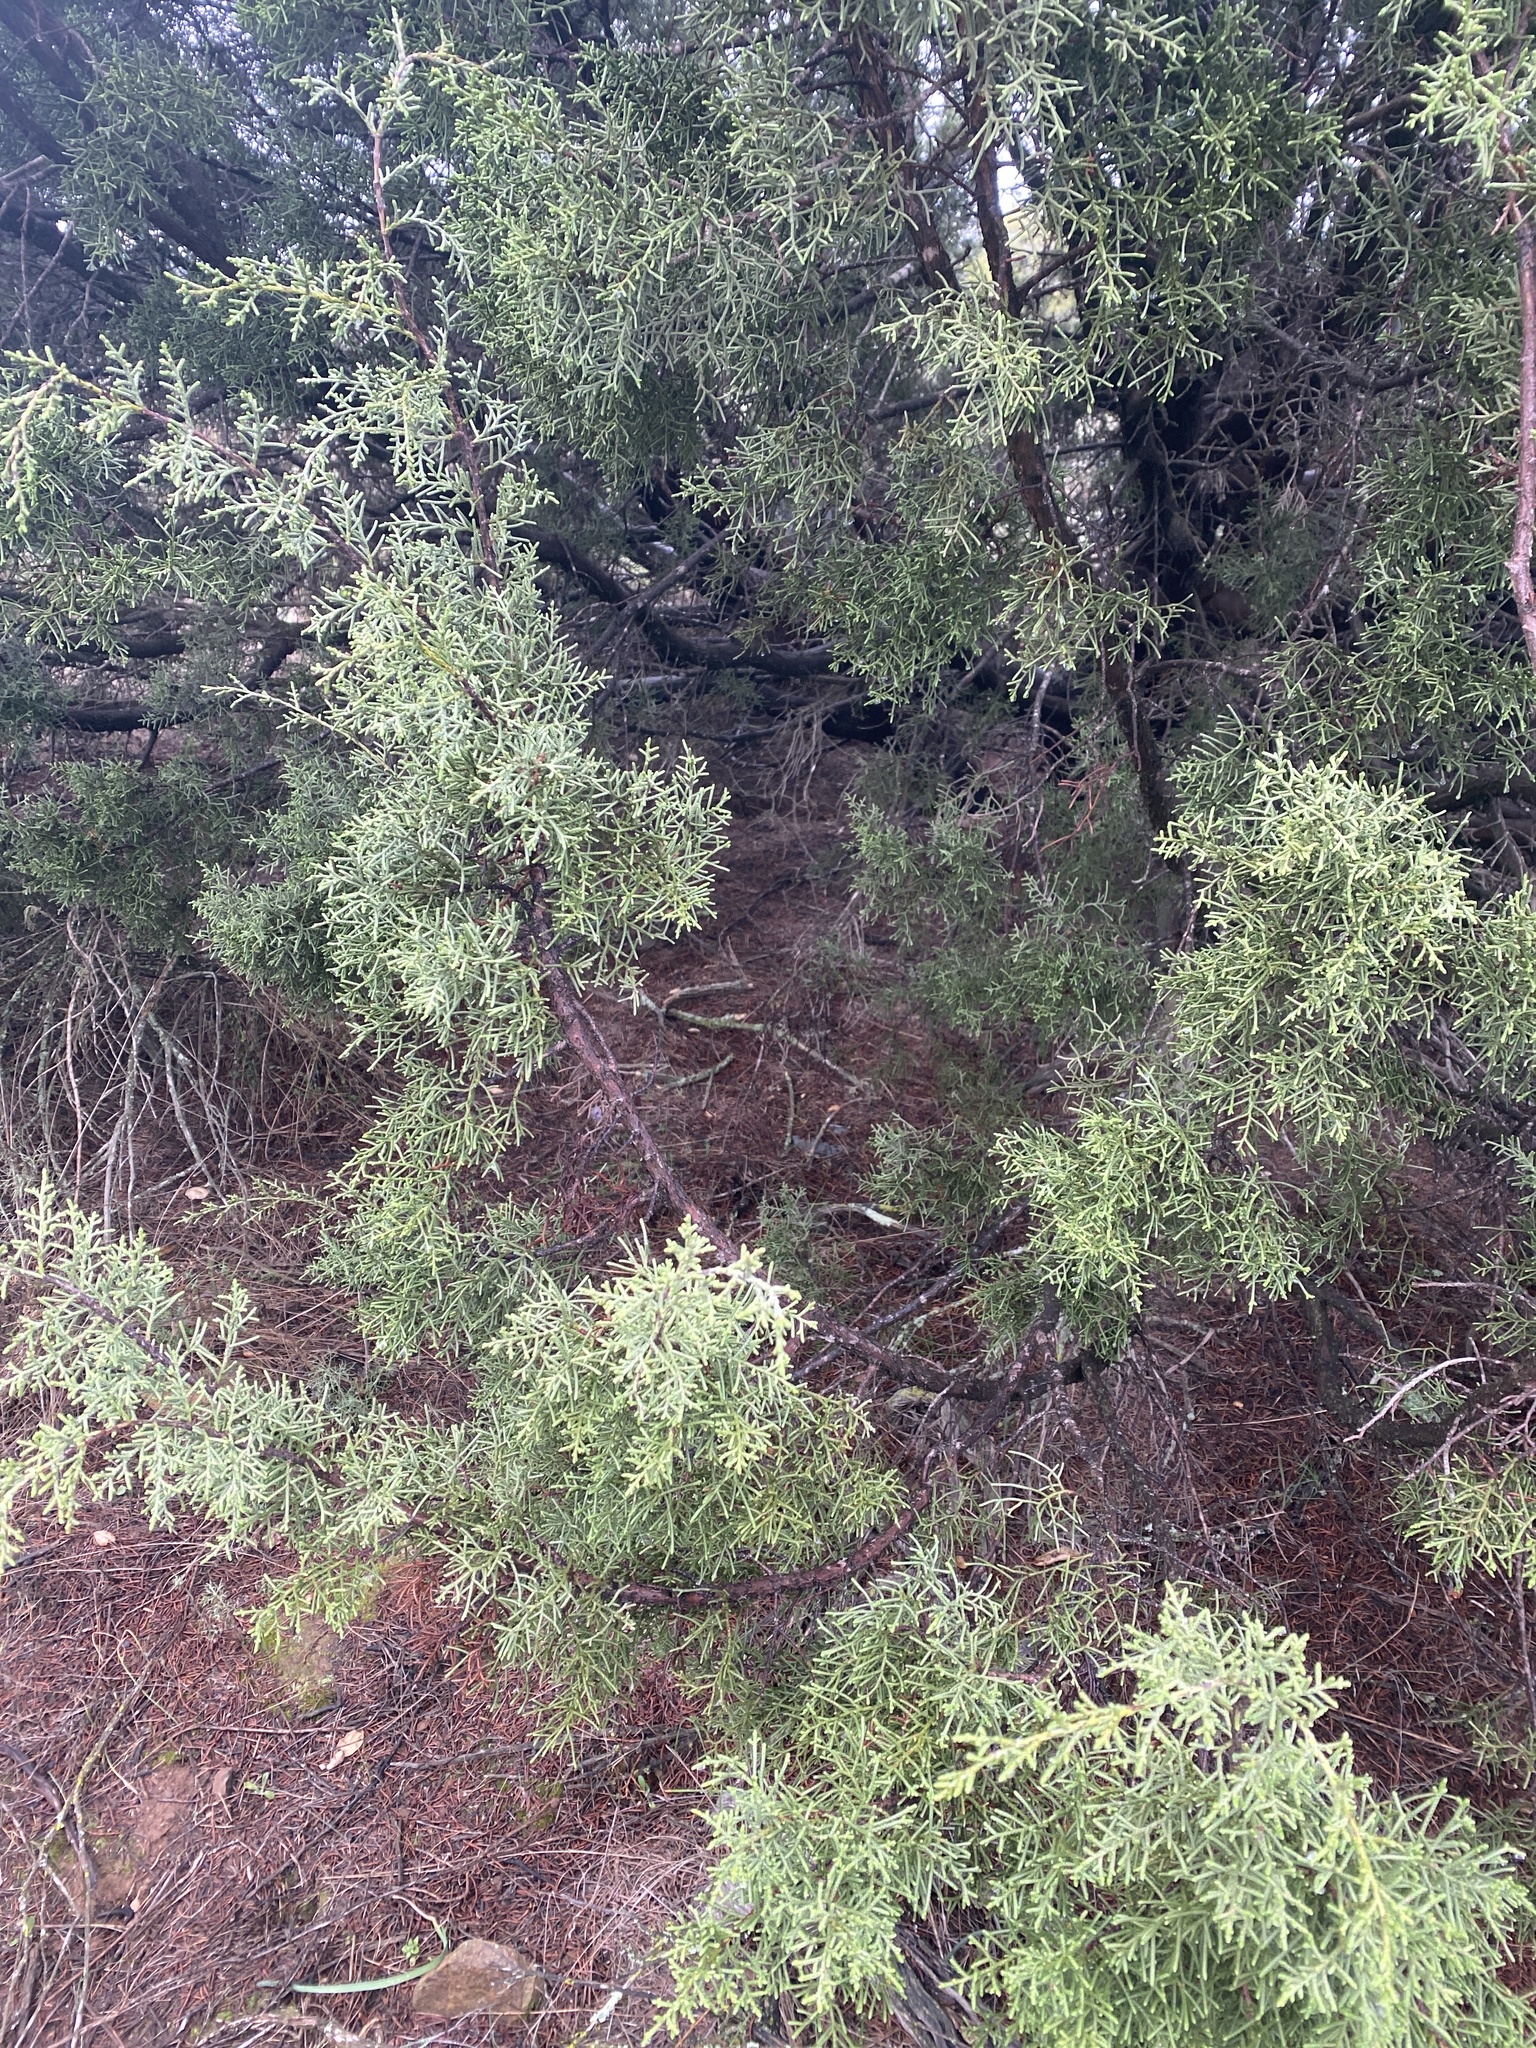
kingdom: Plantae
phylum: Tracheophyta
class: Pinopsida
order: Pinales
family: Cupressaceae
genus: Juniperus
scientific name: Juniperus californica
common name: California juniper
